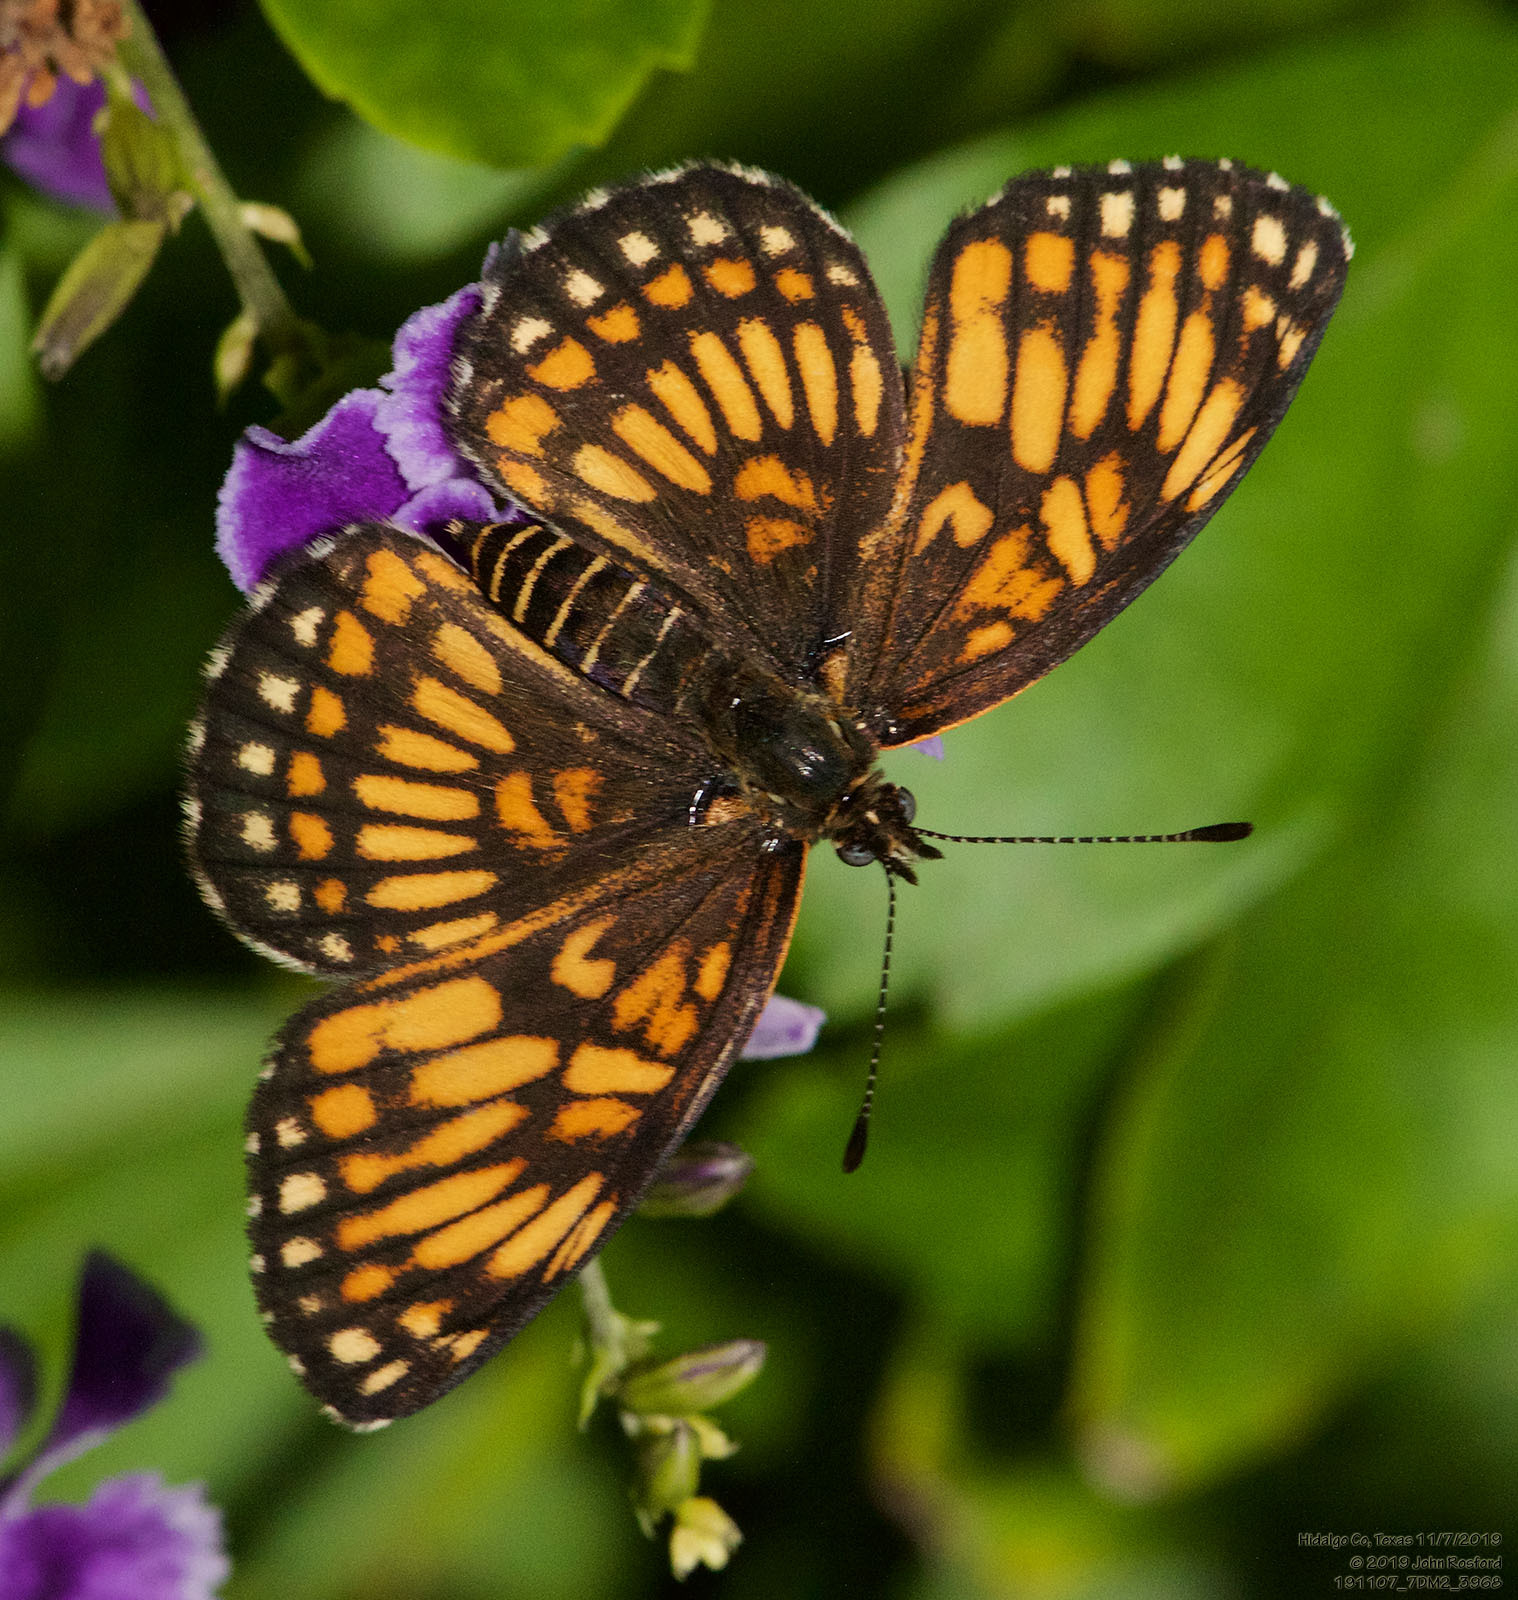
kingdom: Animalia
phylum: Arthropoda
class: Insecta
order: Lepidoptera
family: Nymphalidae
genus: Thessalia
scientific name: Thessalia theona
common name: Nymphalid moth
